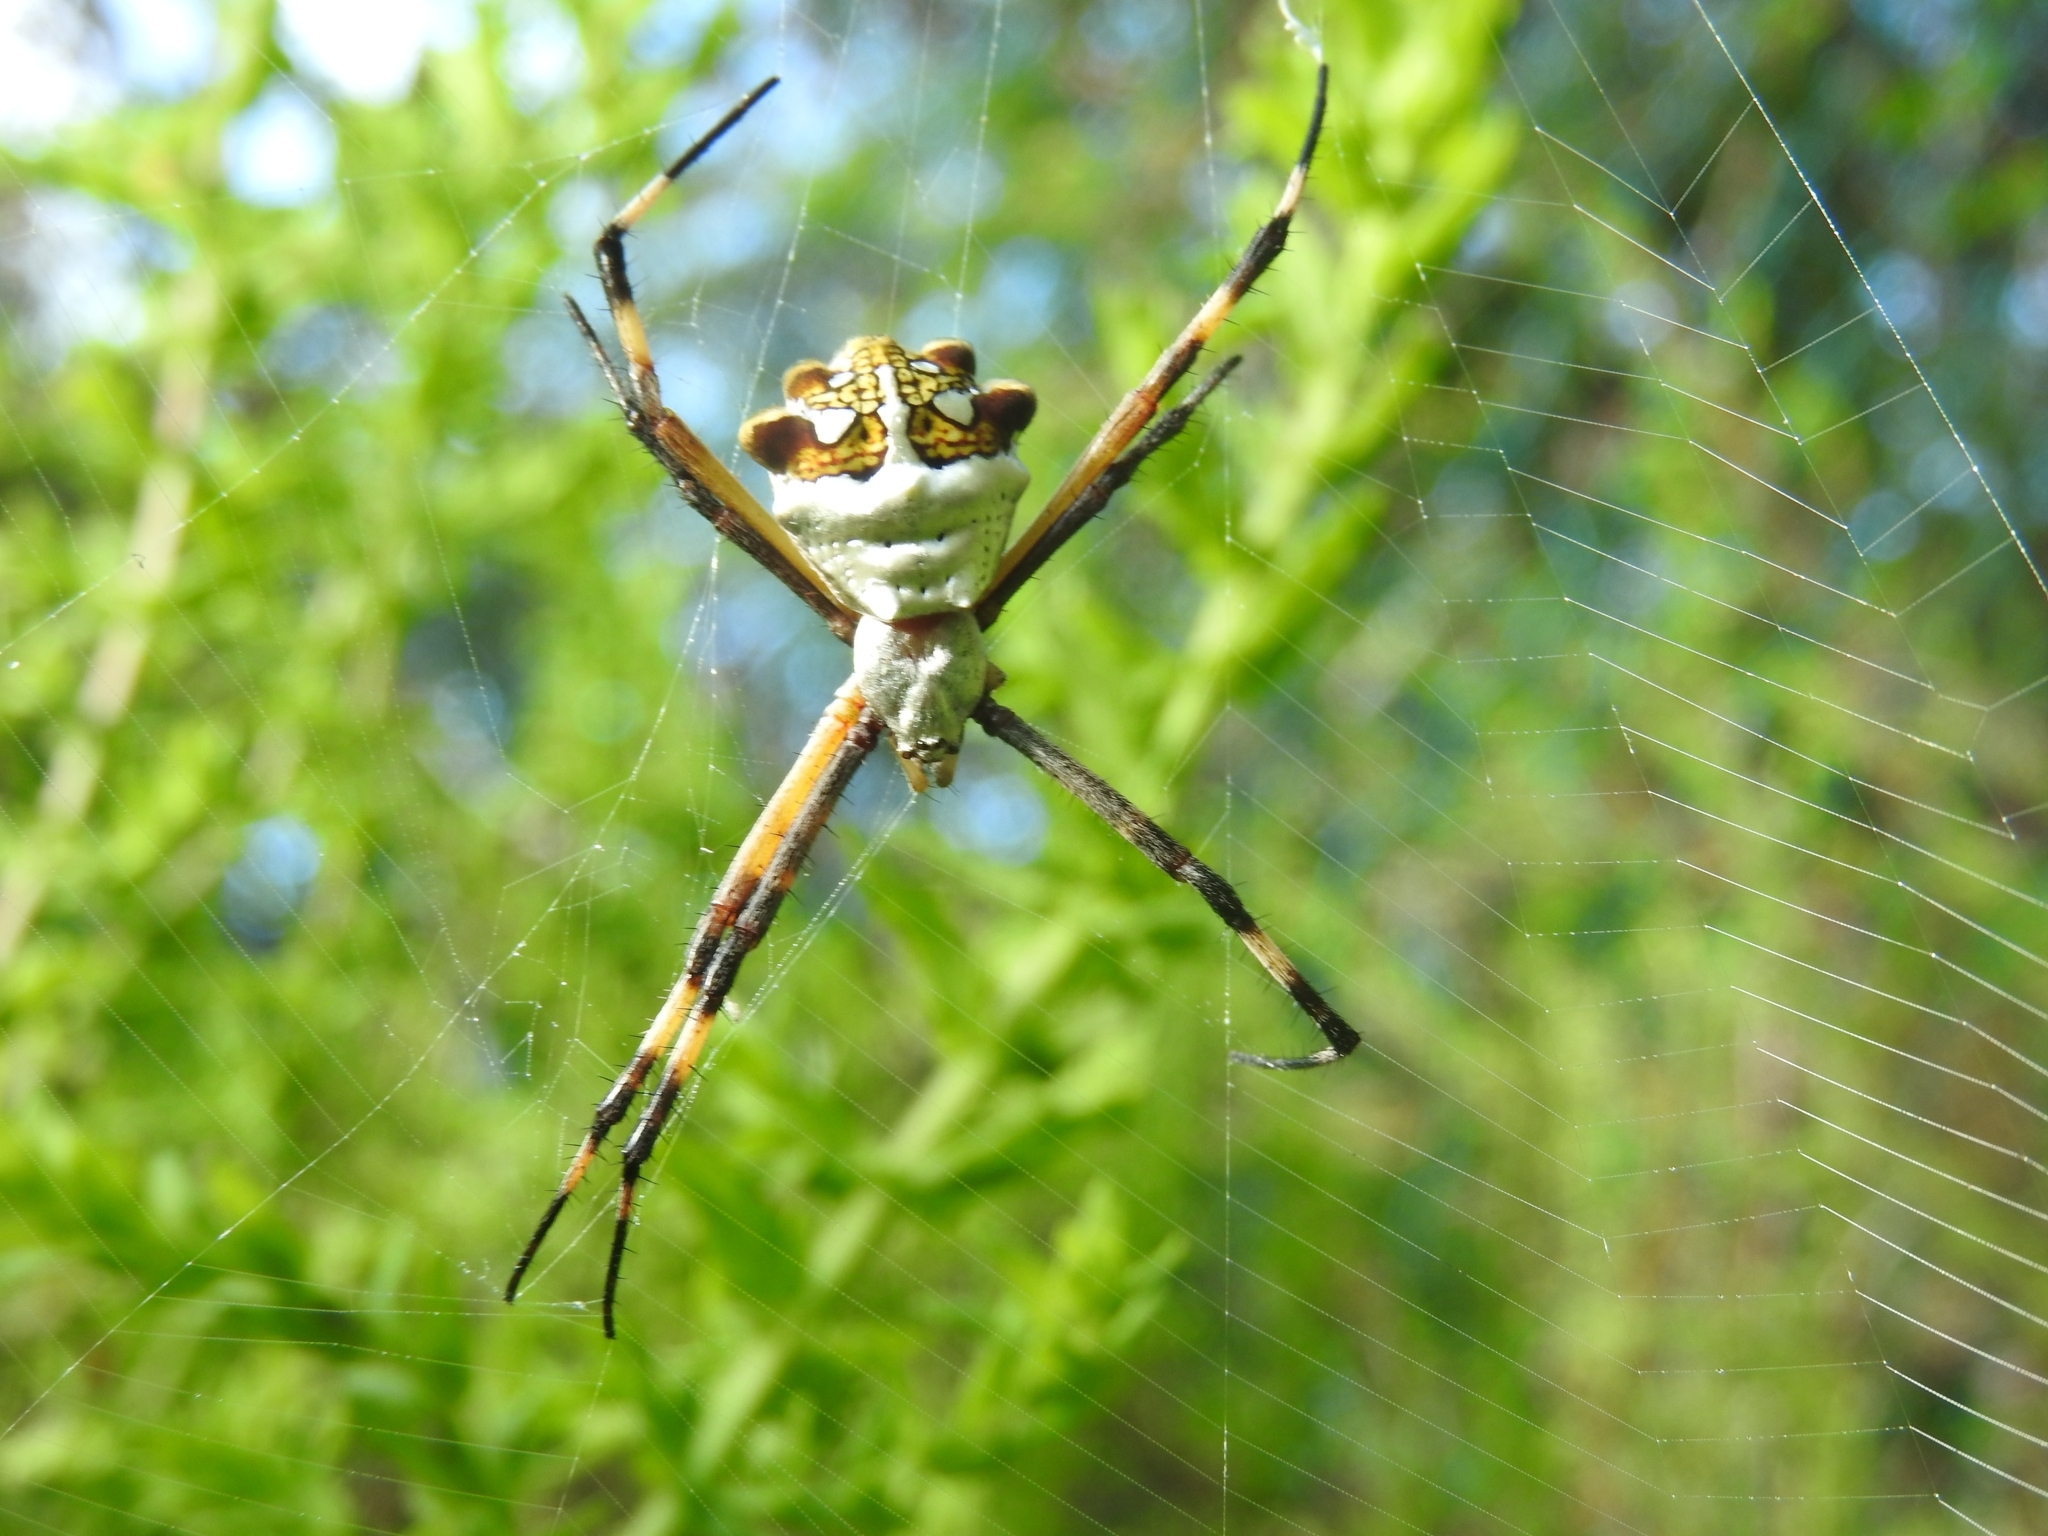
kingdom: Animalia
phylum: Arthropoda
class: Arachnida
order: Araneae
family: Araneidae
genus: Argiope
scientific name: Argiope argentata
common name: Orb weavers
